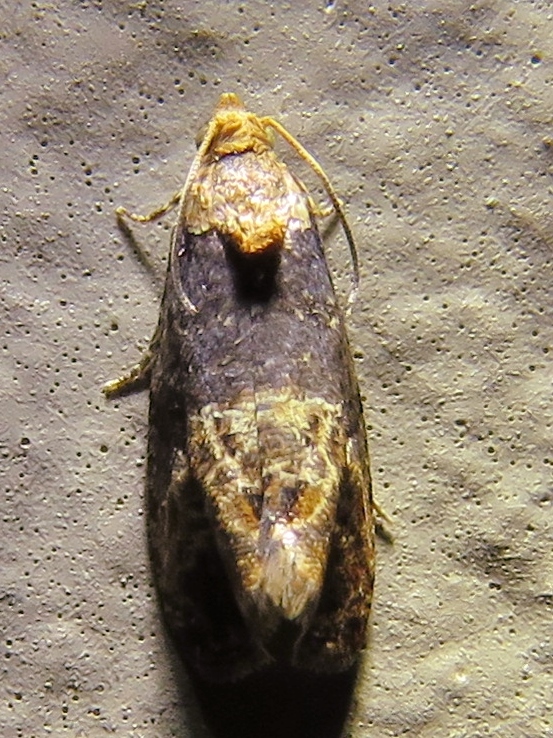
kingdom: Animalia
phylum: Arthropoda
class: Insecta
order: Lepidoptera
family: Tortricidae
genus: Paralobesia
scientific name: Paralobesia viteana
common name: Grape berry moth
